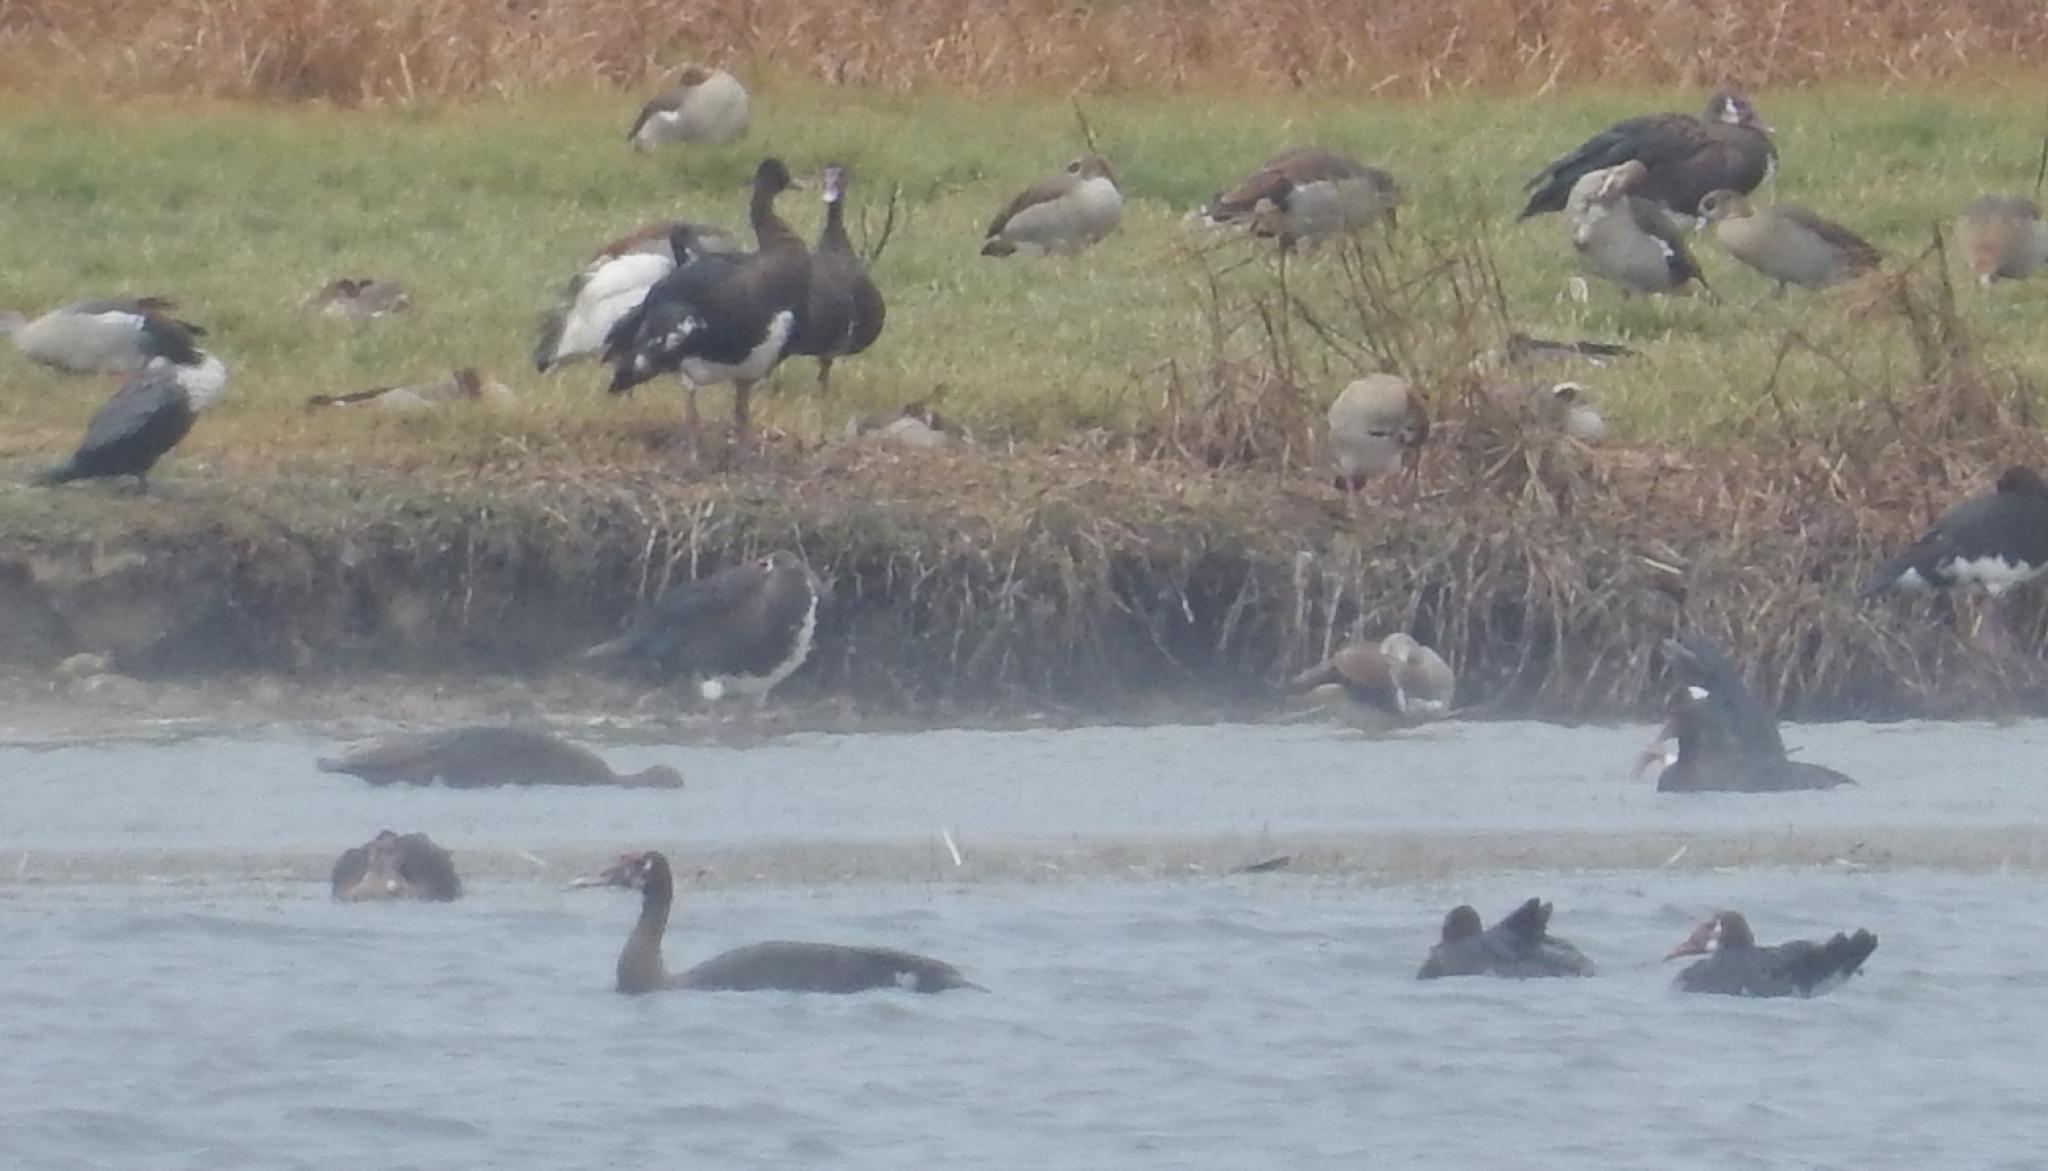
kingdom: Animalia
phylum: Chordata
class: Aves
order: Anseriformes
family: Anatidae
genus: Plectropterus
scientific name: Plectropterus gambensis
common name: Spur-winged goose
